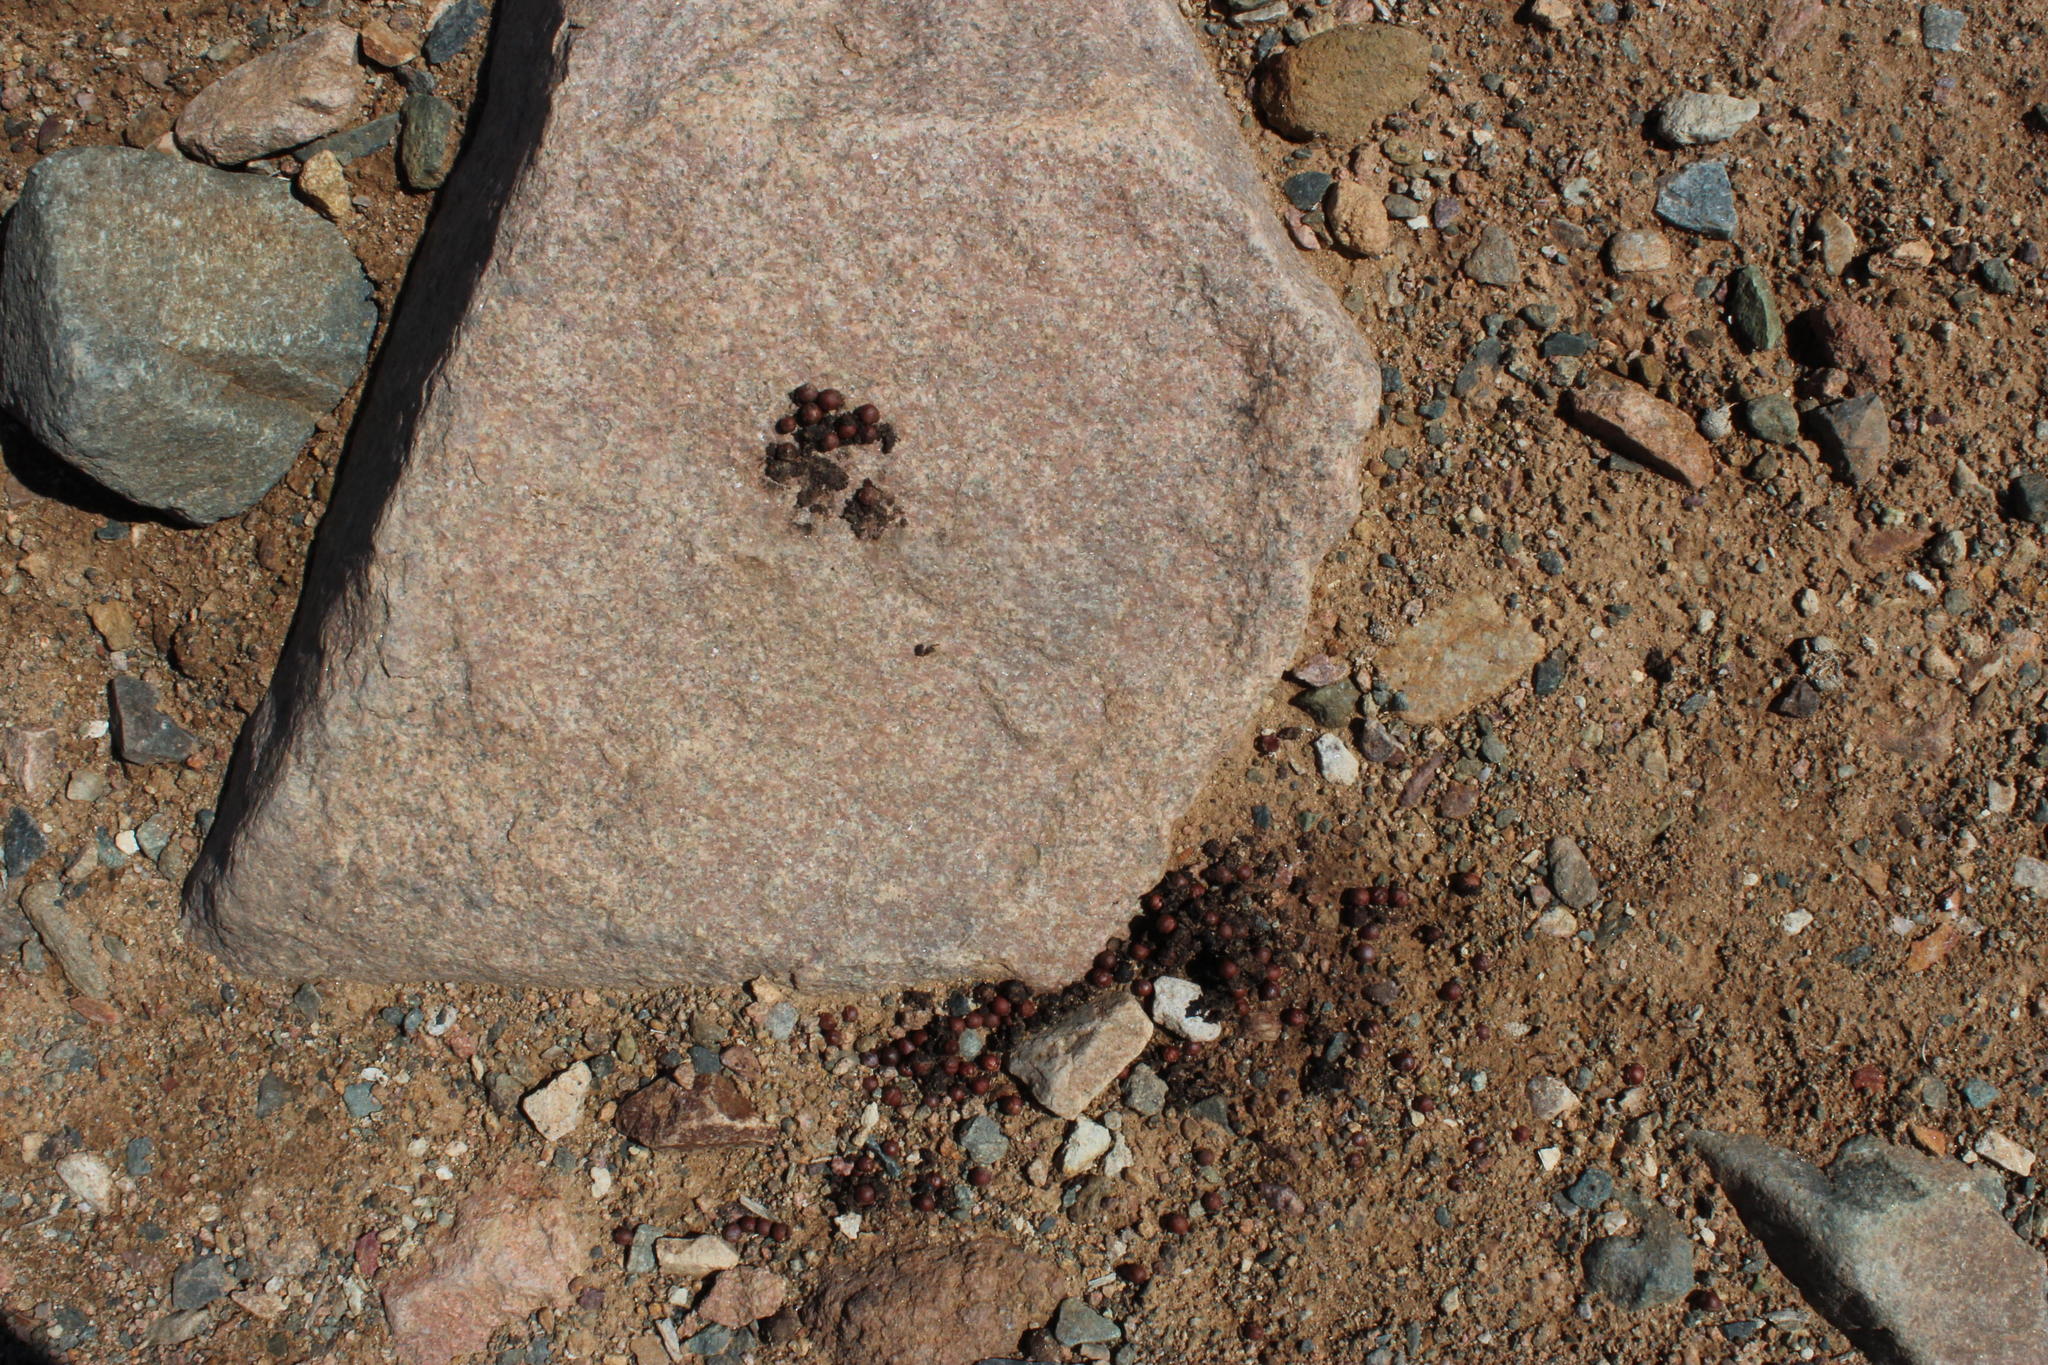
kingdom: Animalia
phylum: Chordata
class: Mammalia
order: Primates
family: Cercopithecidae
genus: Papio
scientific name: Papio ursinus
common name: Chacma baboon
